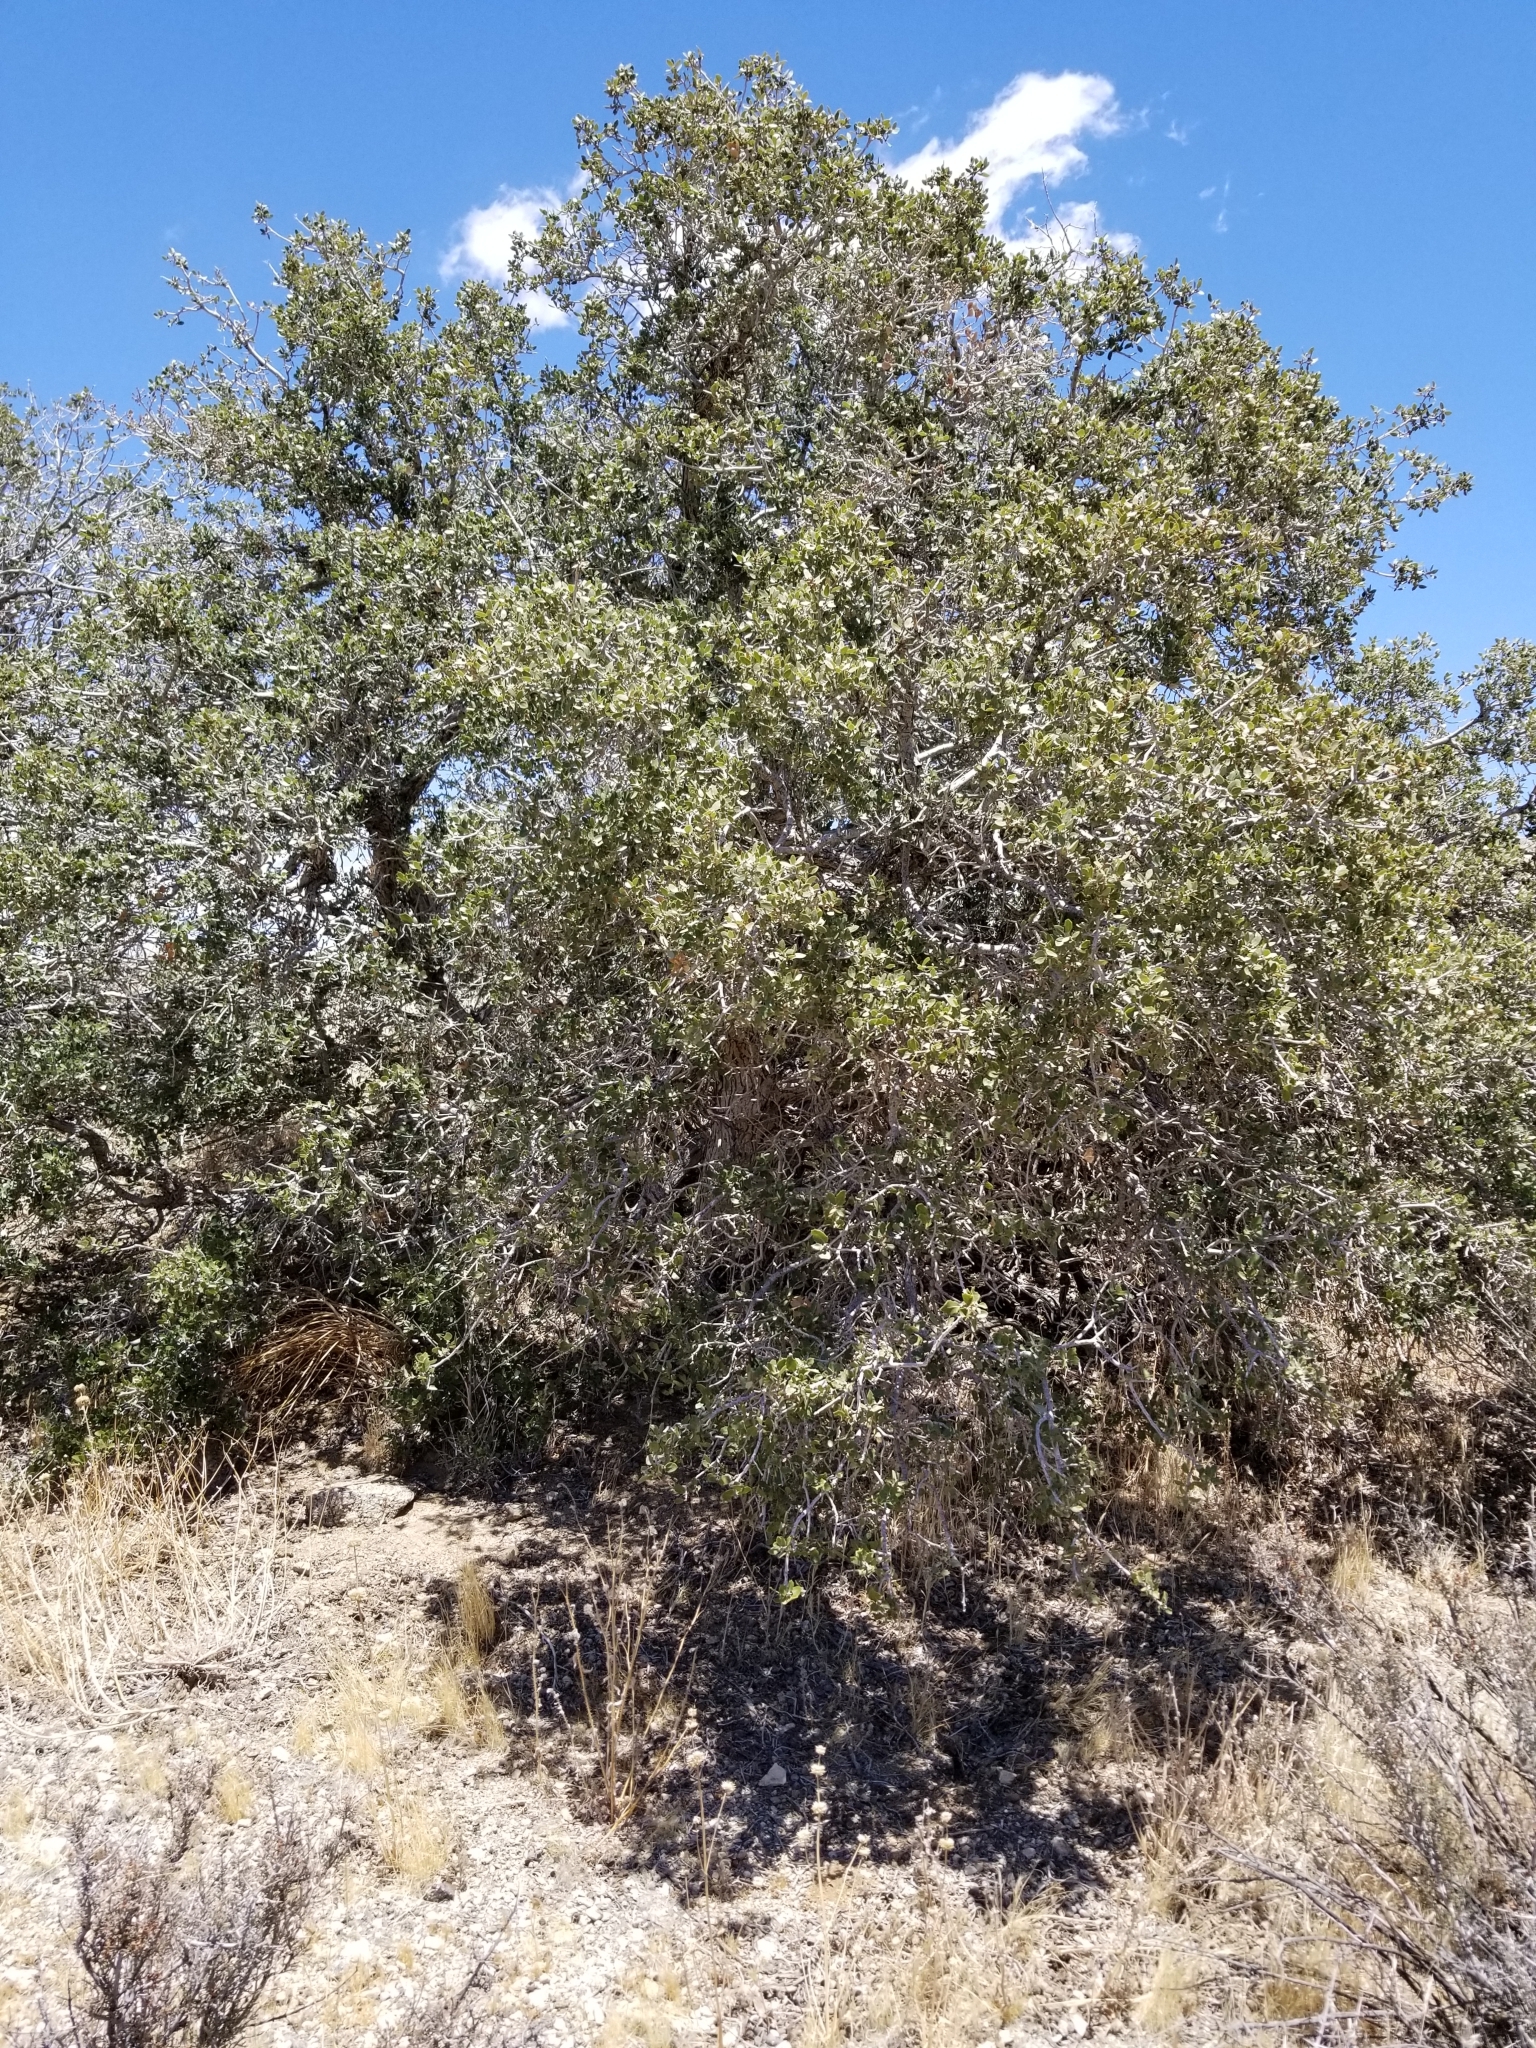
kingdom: Plantae
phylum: Tracheophyta
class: Magnoliopsida
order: Fagales
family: Fagaceae
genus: Quercus
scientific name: Quercus cornelius-mulleri
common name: Muller oak
